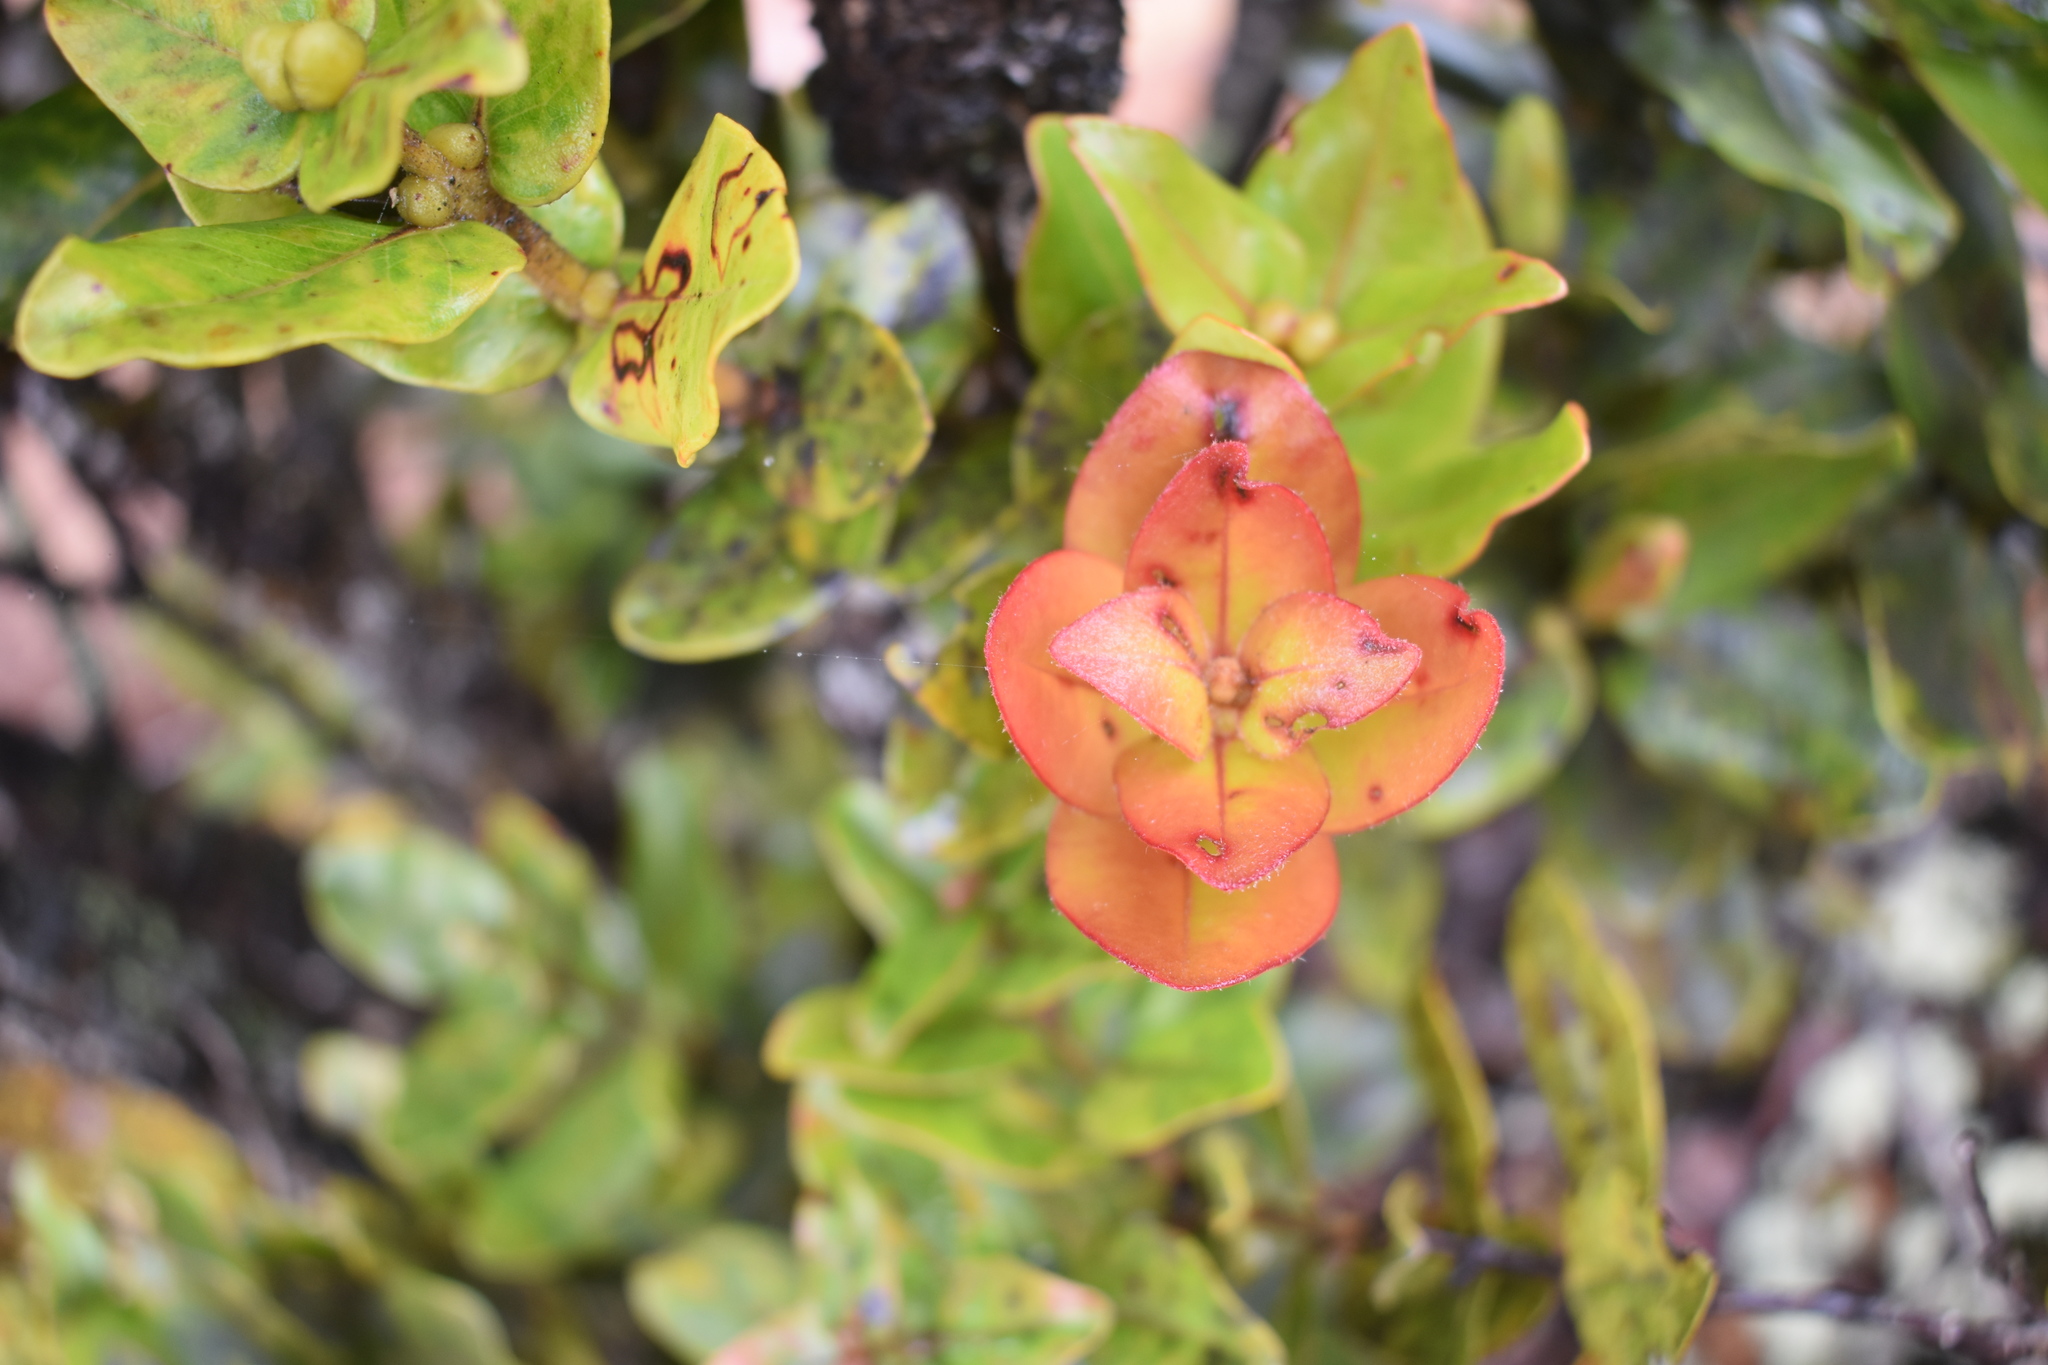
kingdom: Plantae
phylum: Tracheophyta
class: Magnoliopsida
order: Myrtales
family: Myrtaceae
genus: Metrosideros
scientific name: Metrosideros polymorpha
